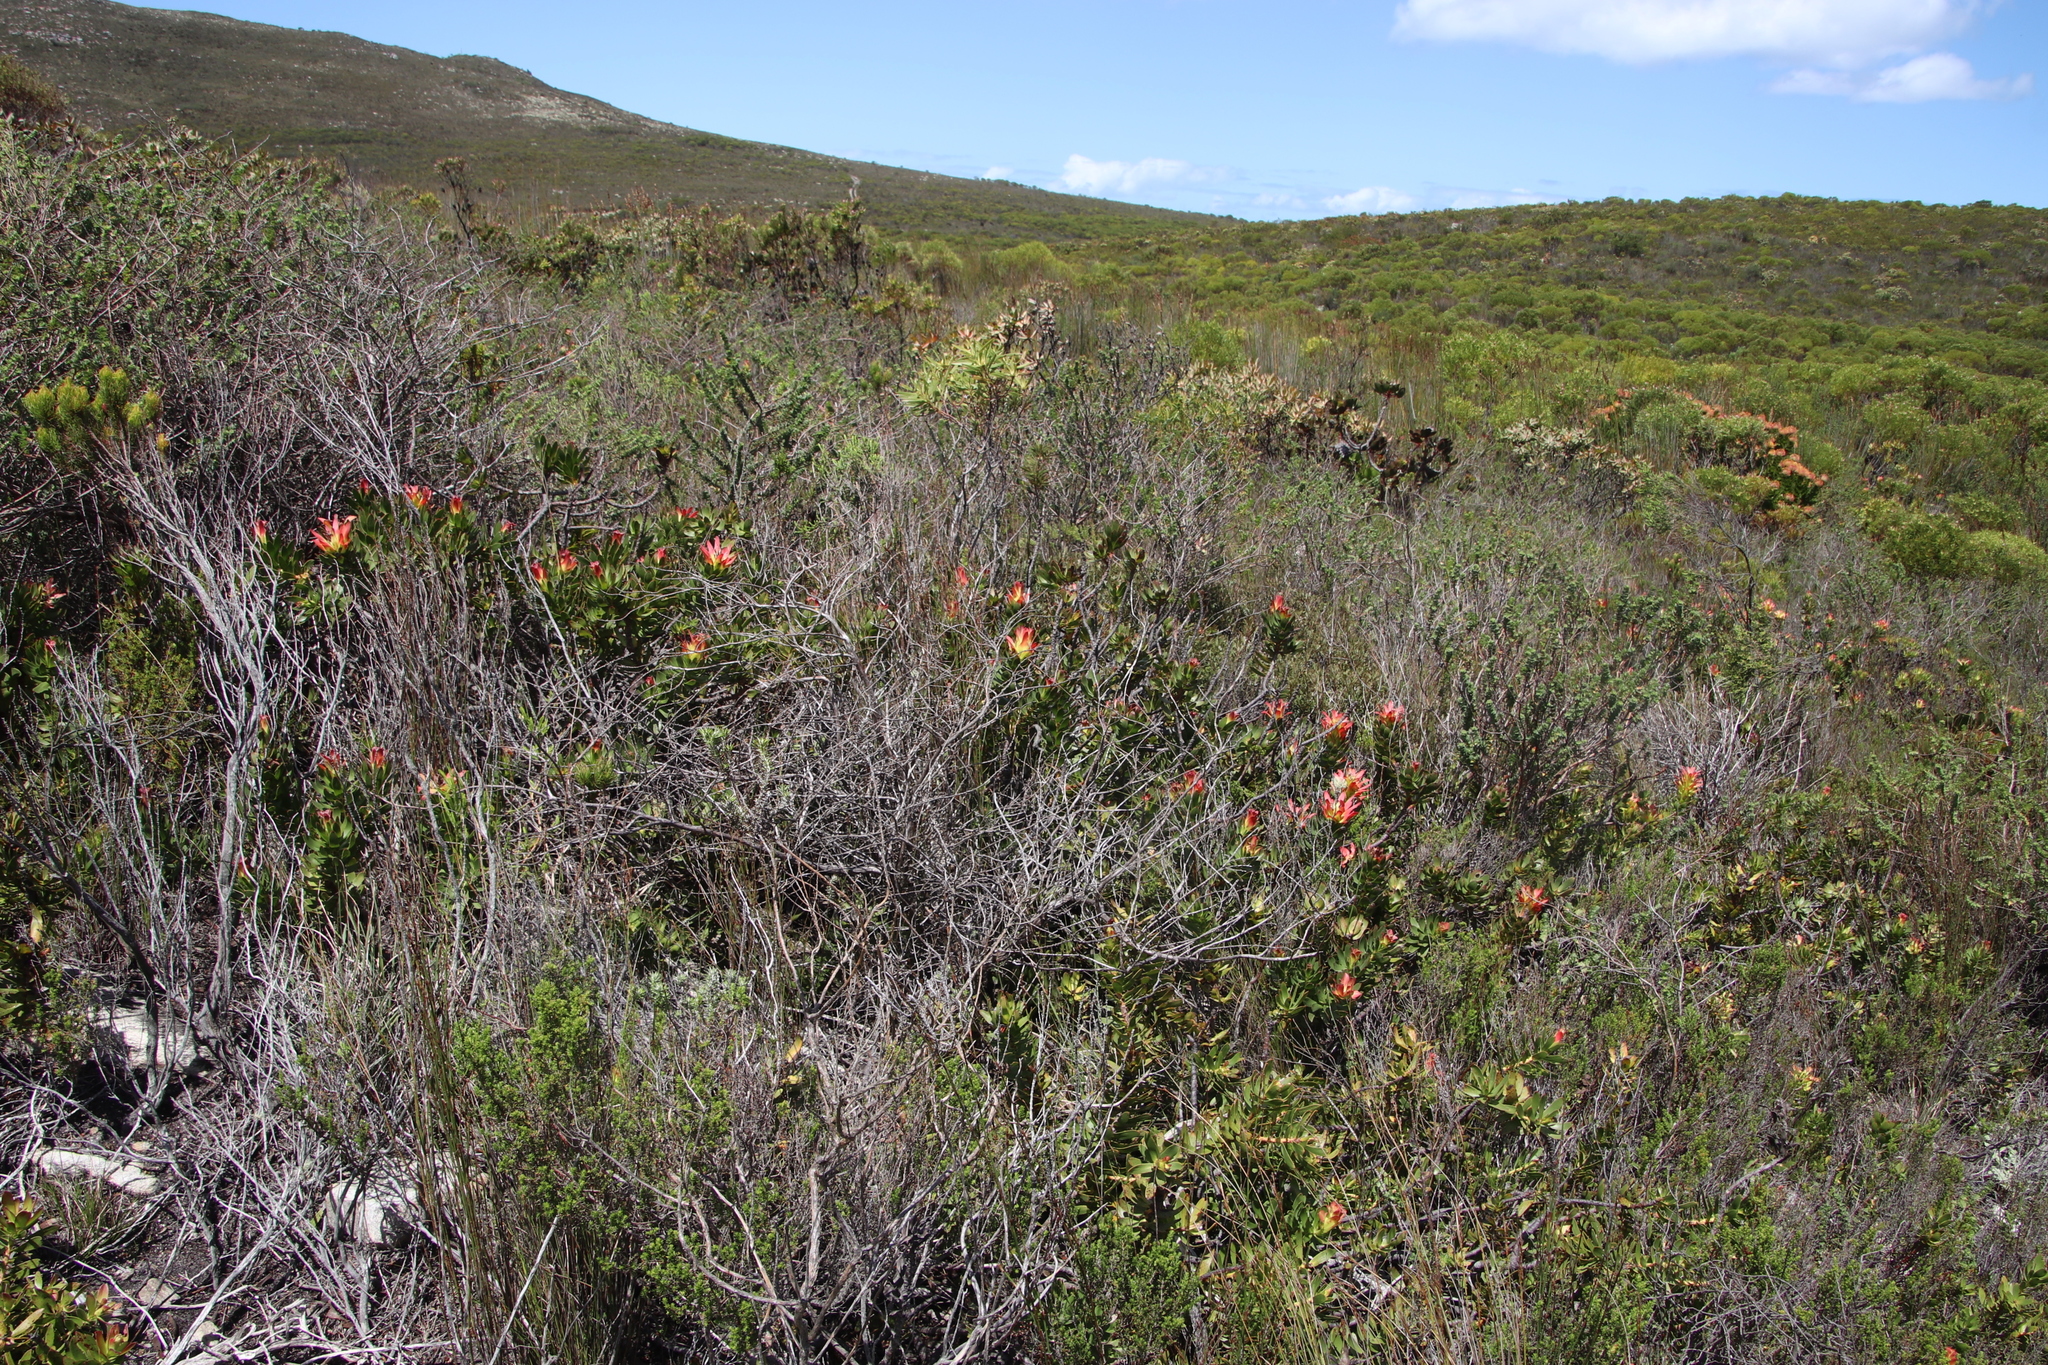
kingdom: Plantae
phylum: Tracheophyta
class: Magnoliopsida
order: Proteales
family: Proteaceae
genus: Mimetes
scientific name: Mimetes cucullatus
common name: Common pagoda
